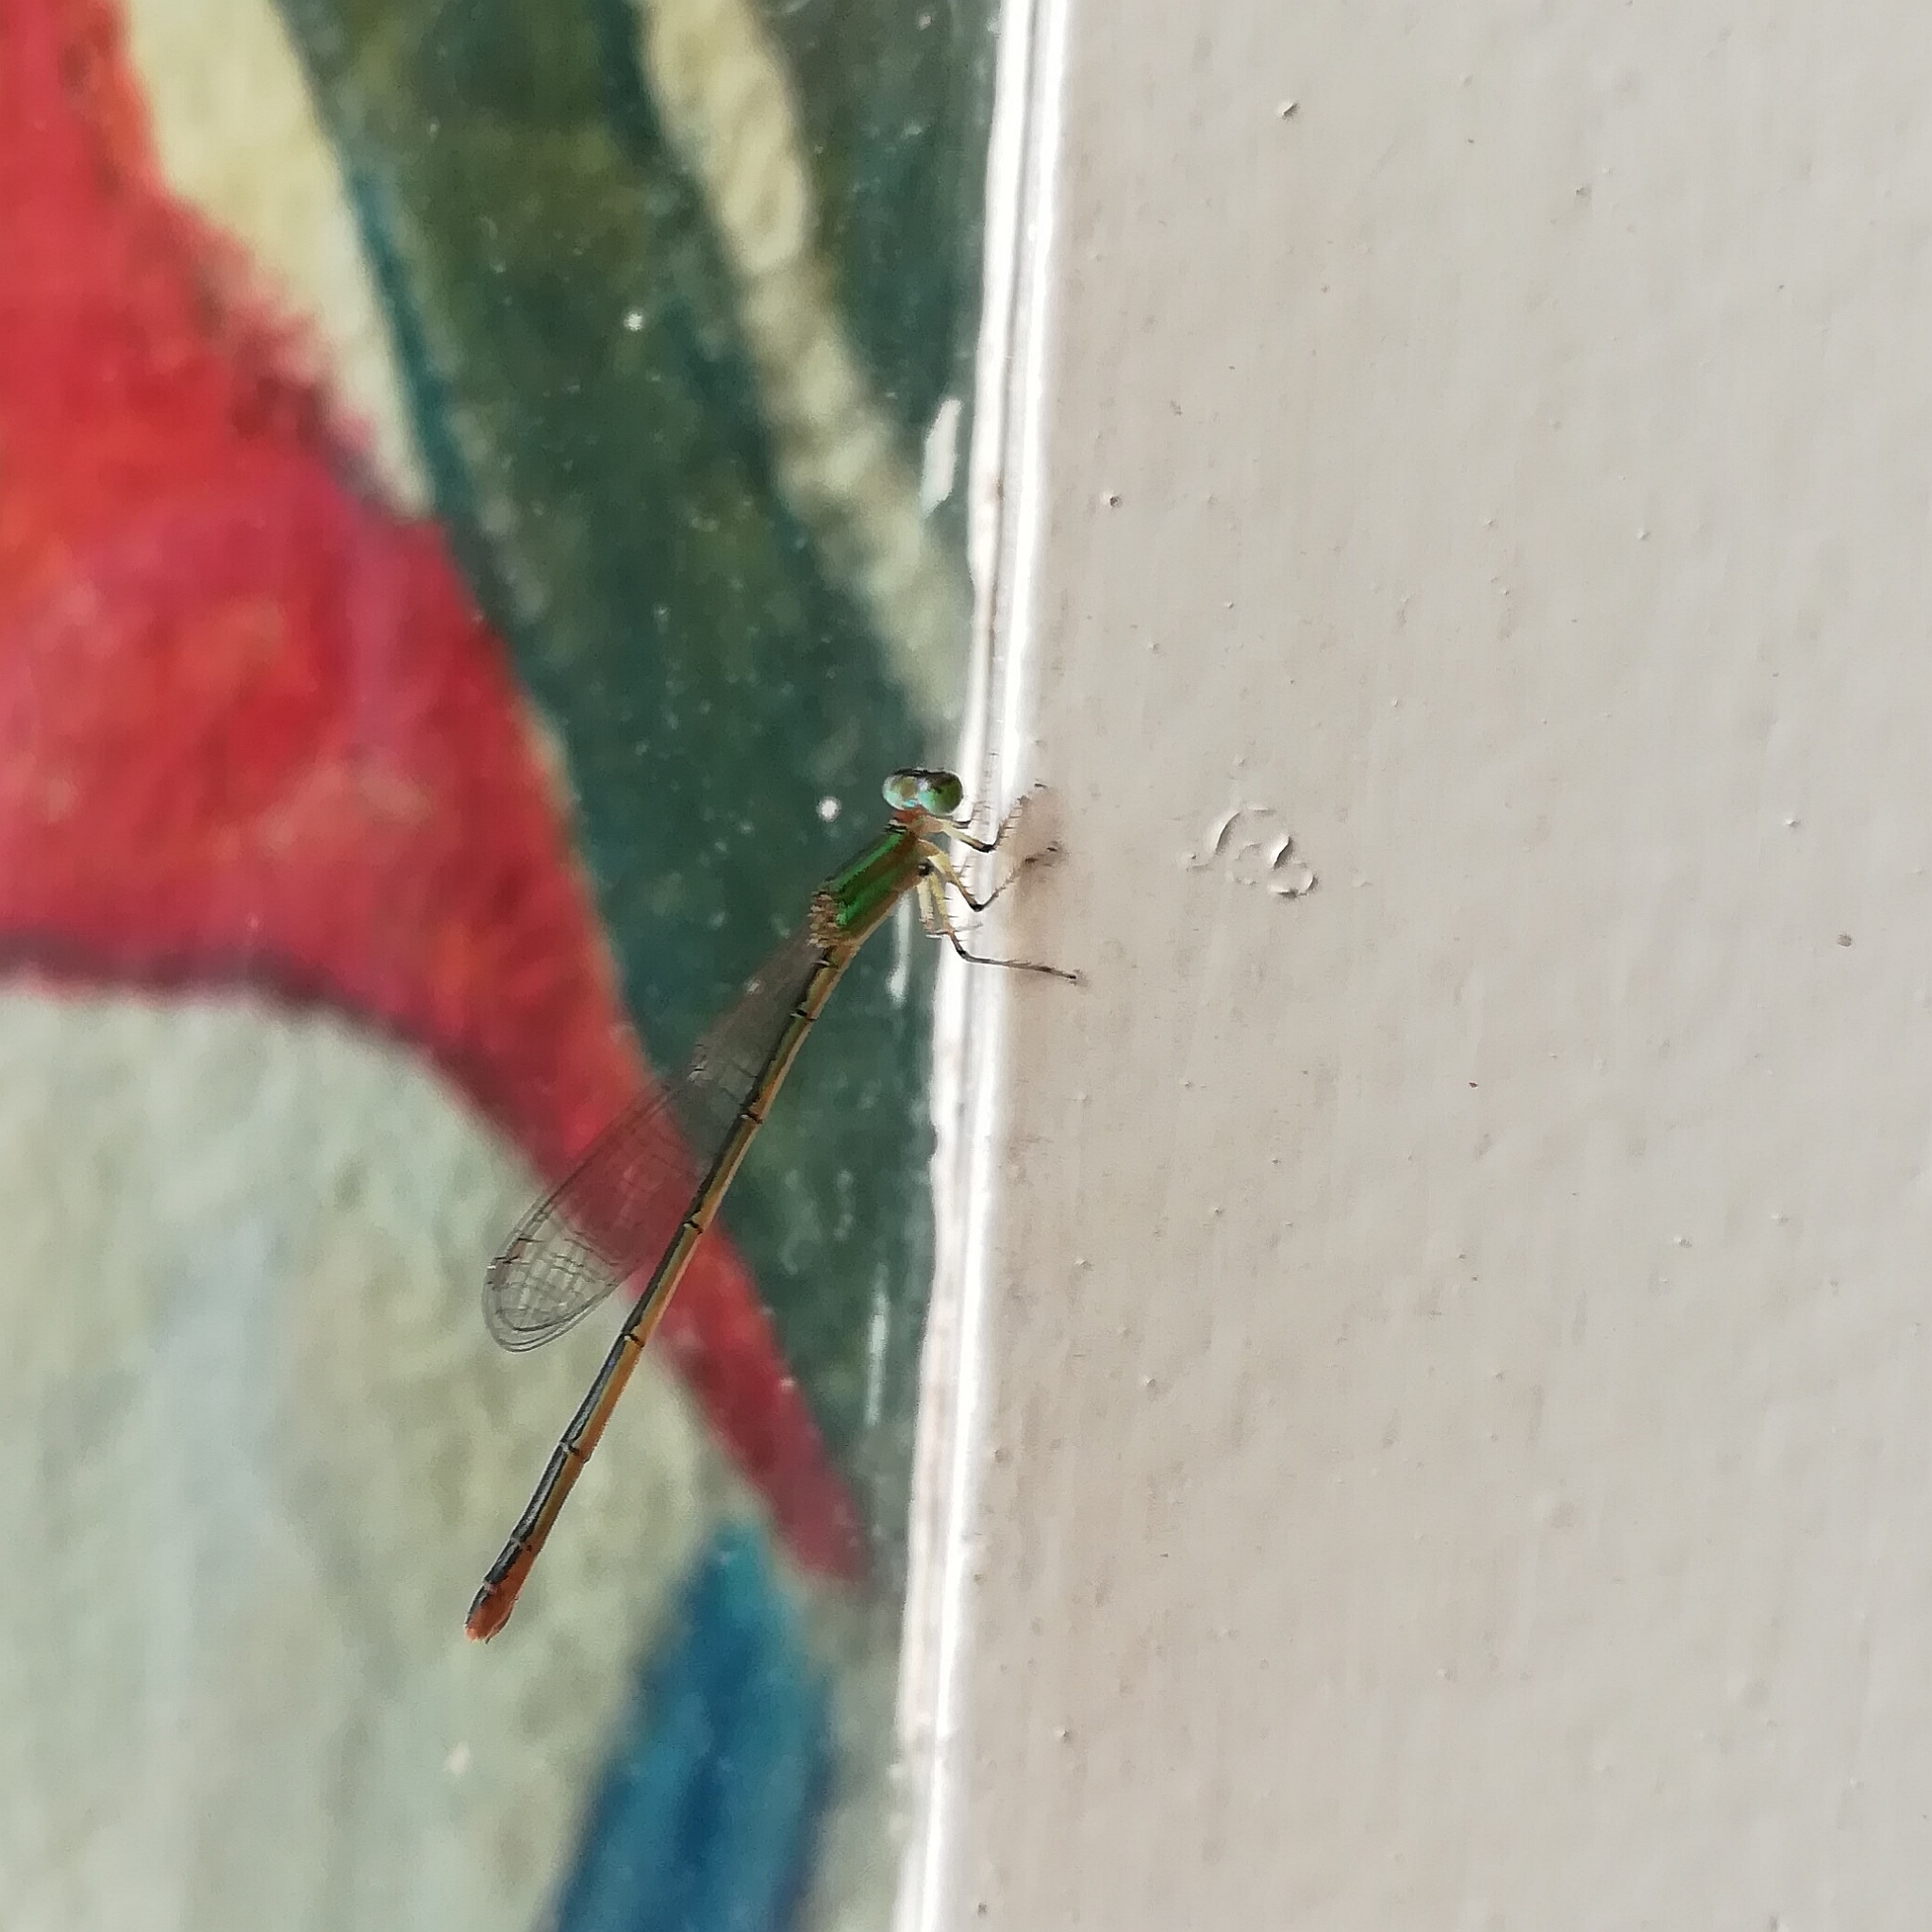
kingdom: Animalia
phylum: Arthropoda
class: Insecta
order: Odonata
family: Coenagrionidae
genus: Agriocnemis
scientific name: Agriocnemis pygmaea
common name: Pygmy wisp
